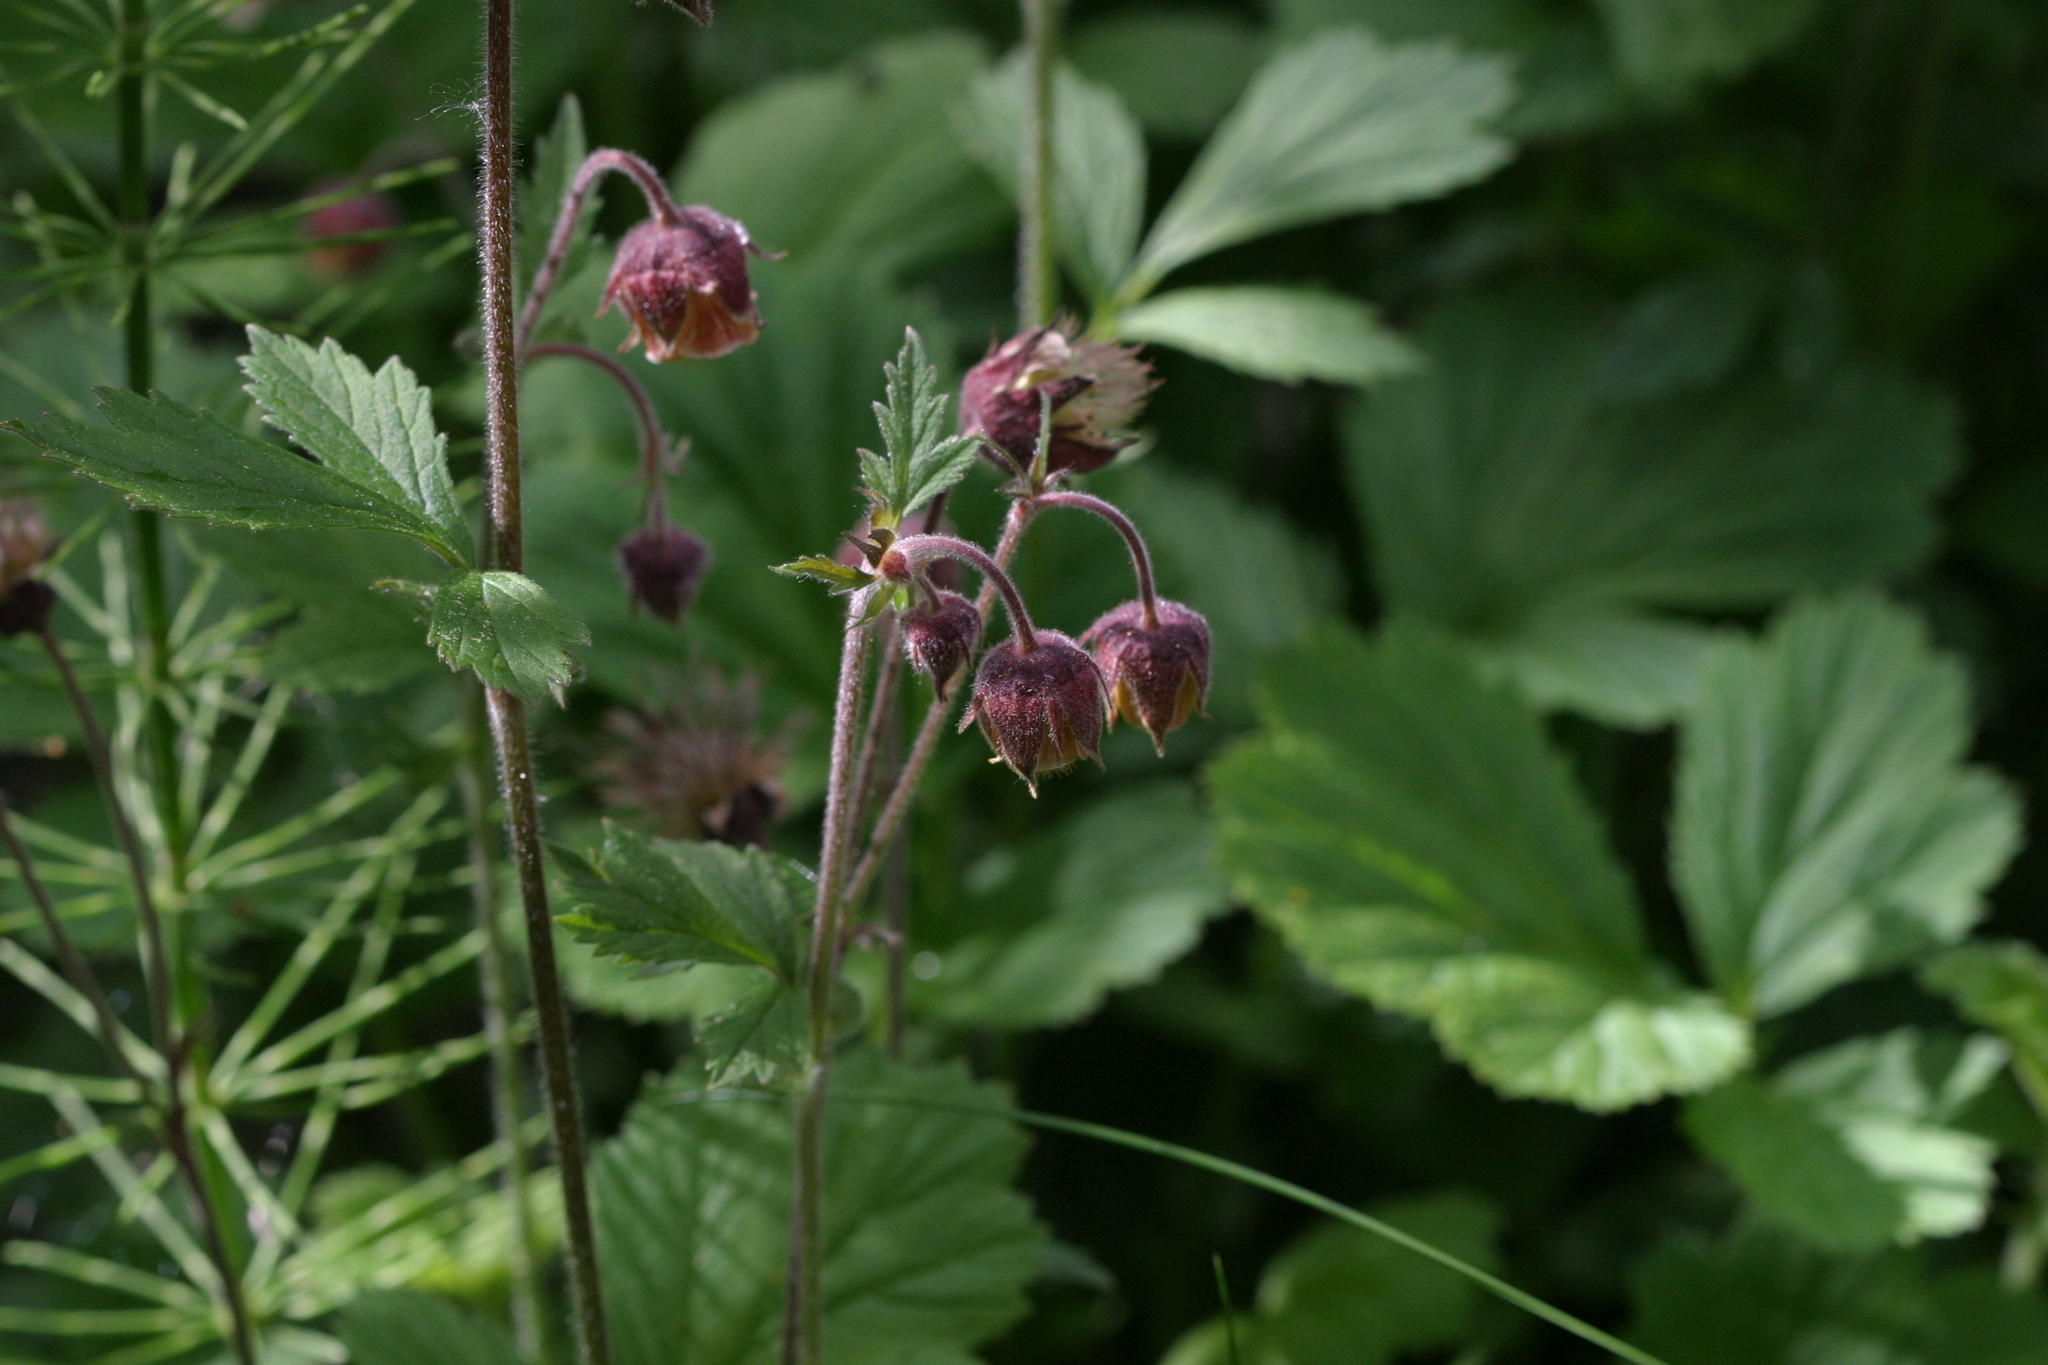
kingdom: Plantae
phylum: Tracheophyta
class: Magnoliopsida
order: Rosales
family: Rosaceae
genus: Geum
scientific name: Geum rivale
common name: Water avens
